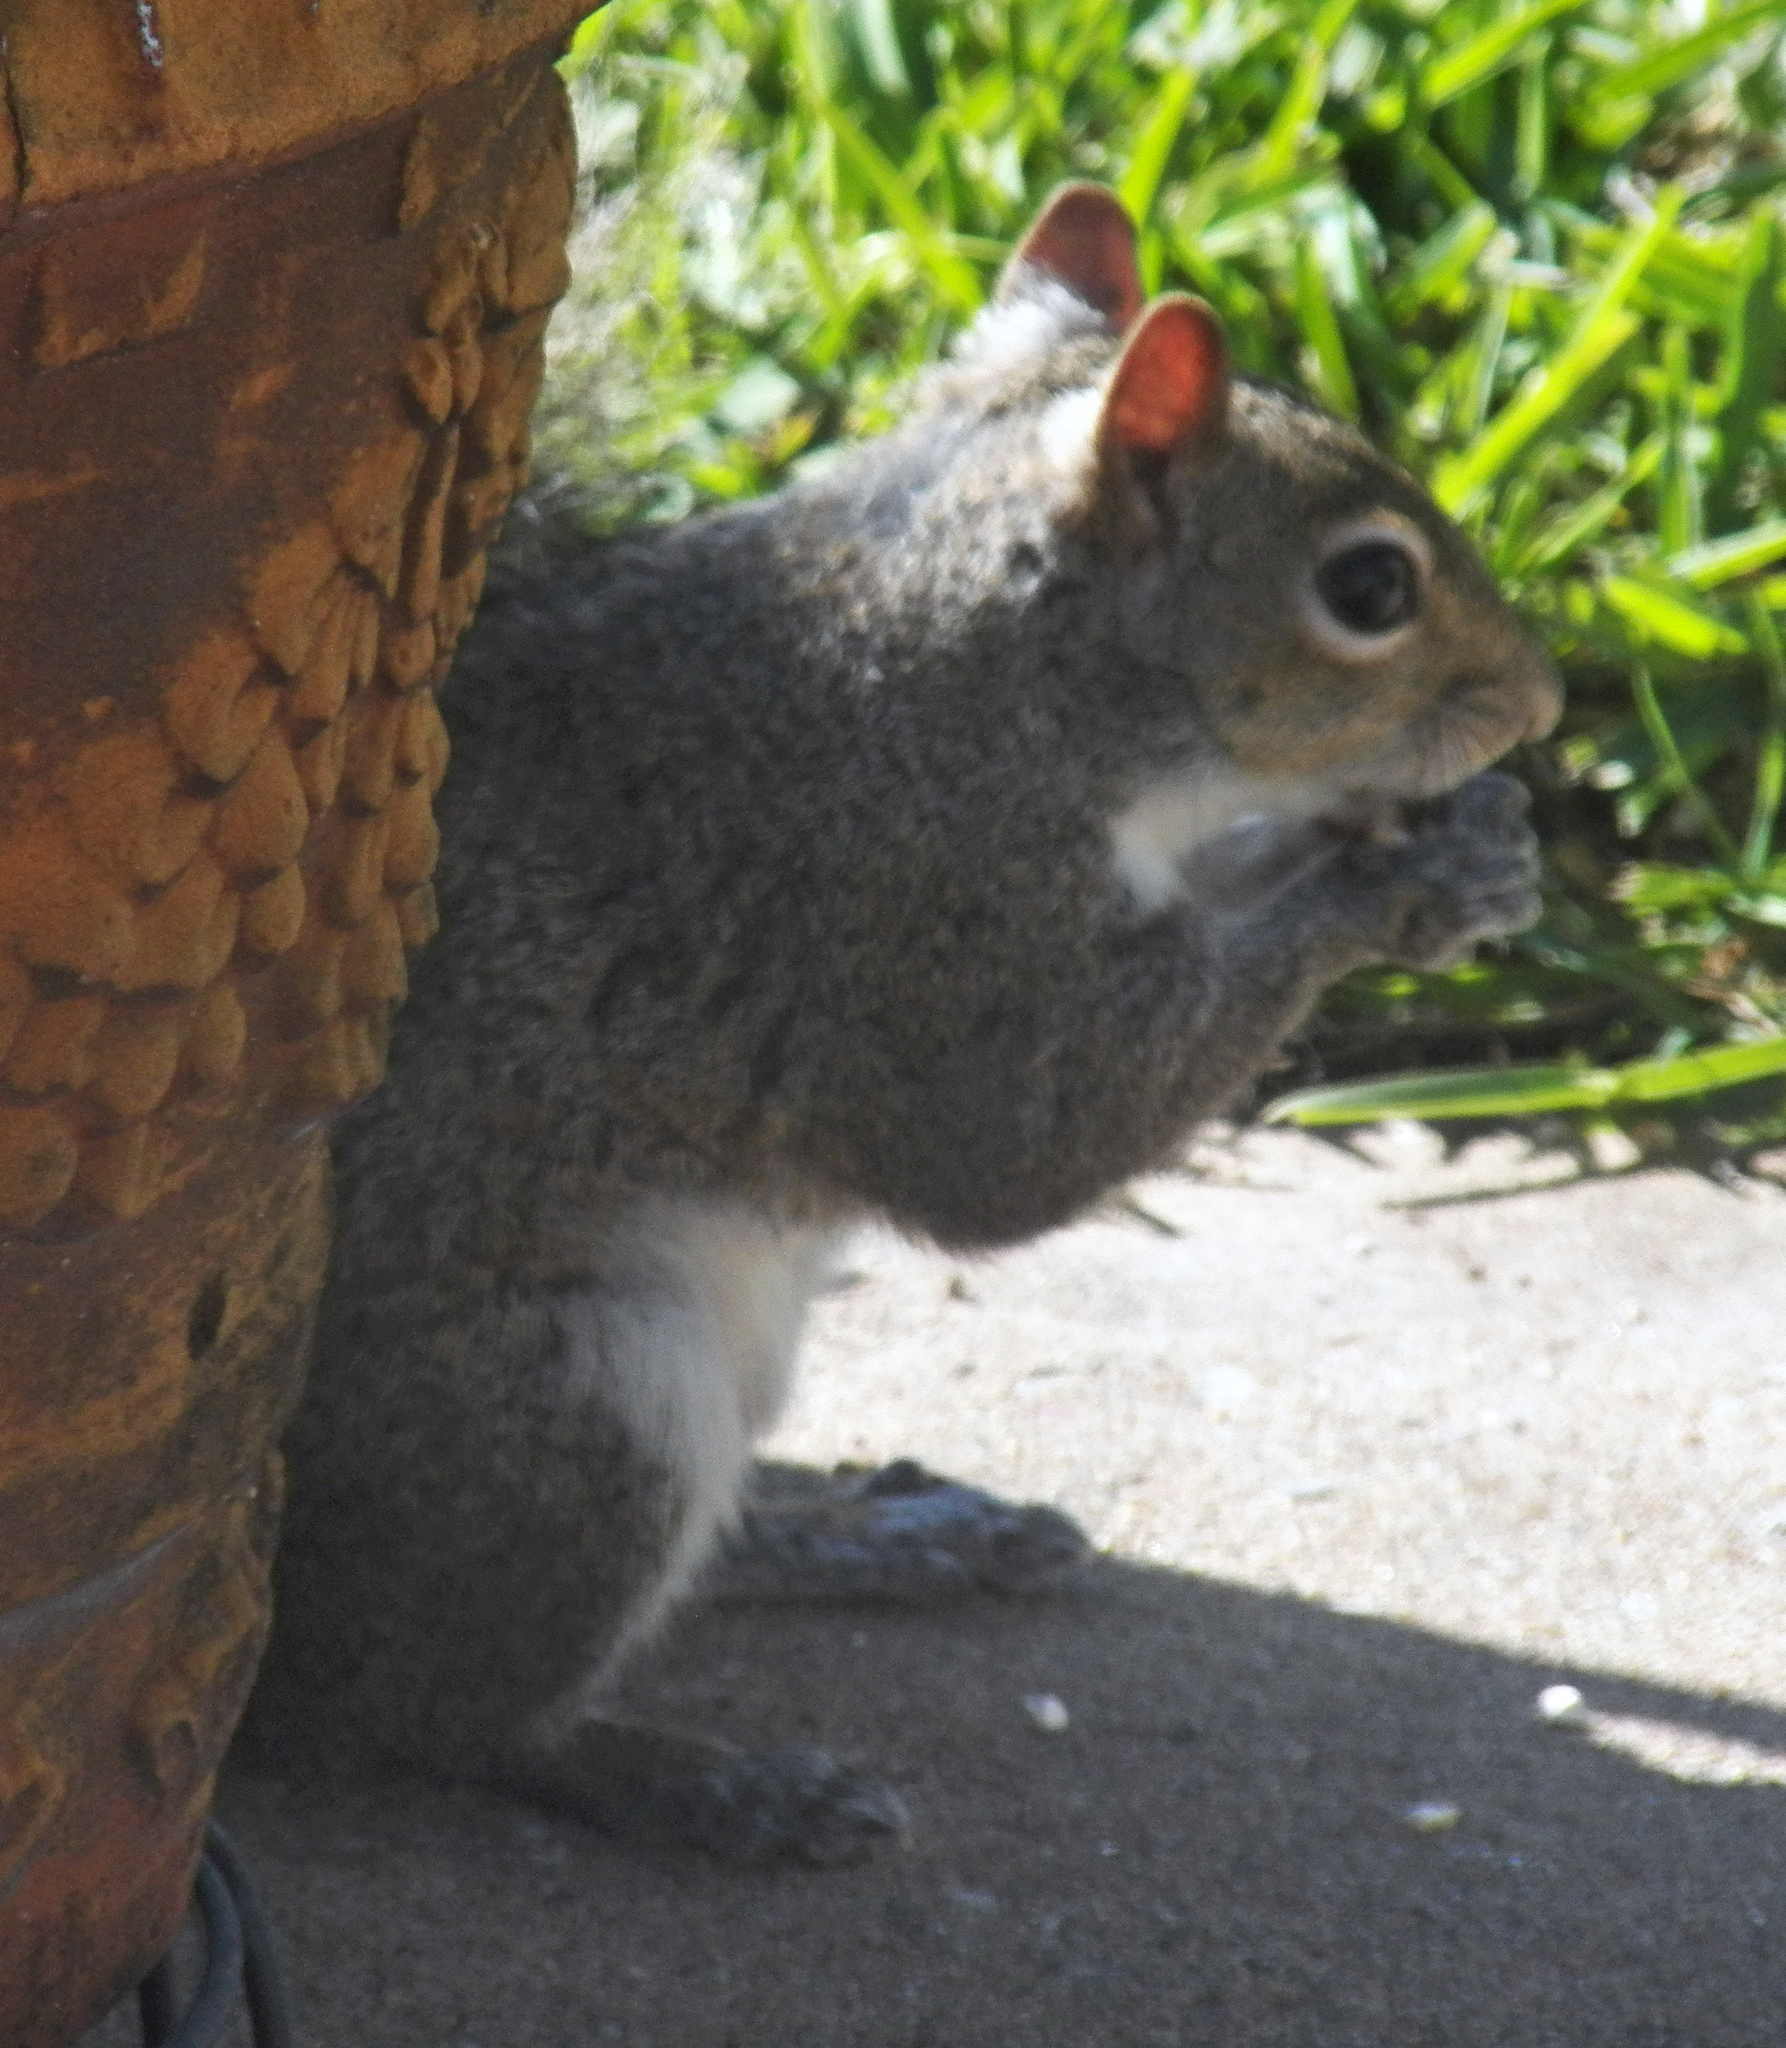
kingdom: Animalia
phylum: Chordata
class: Mammalia
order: Rodentia
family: Sciuridae
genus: Sciurus
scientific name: Sciurus carolinensis
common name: Eastern gray squirrel
